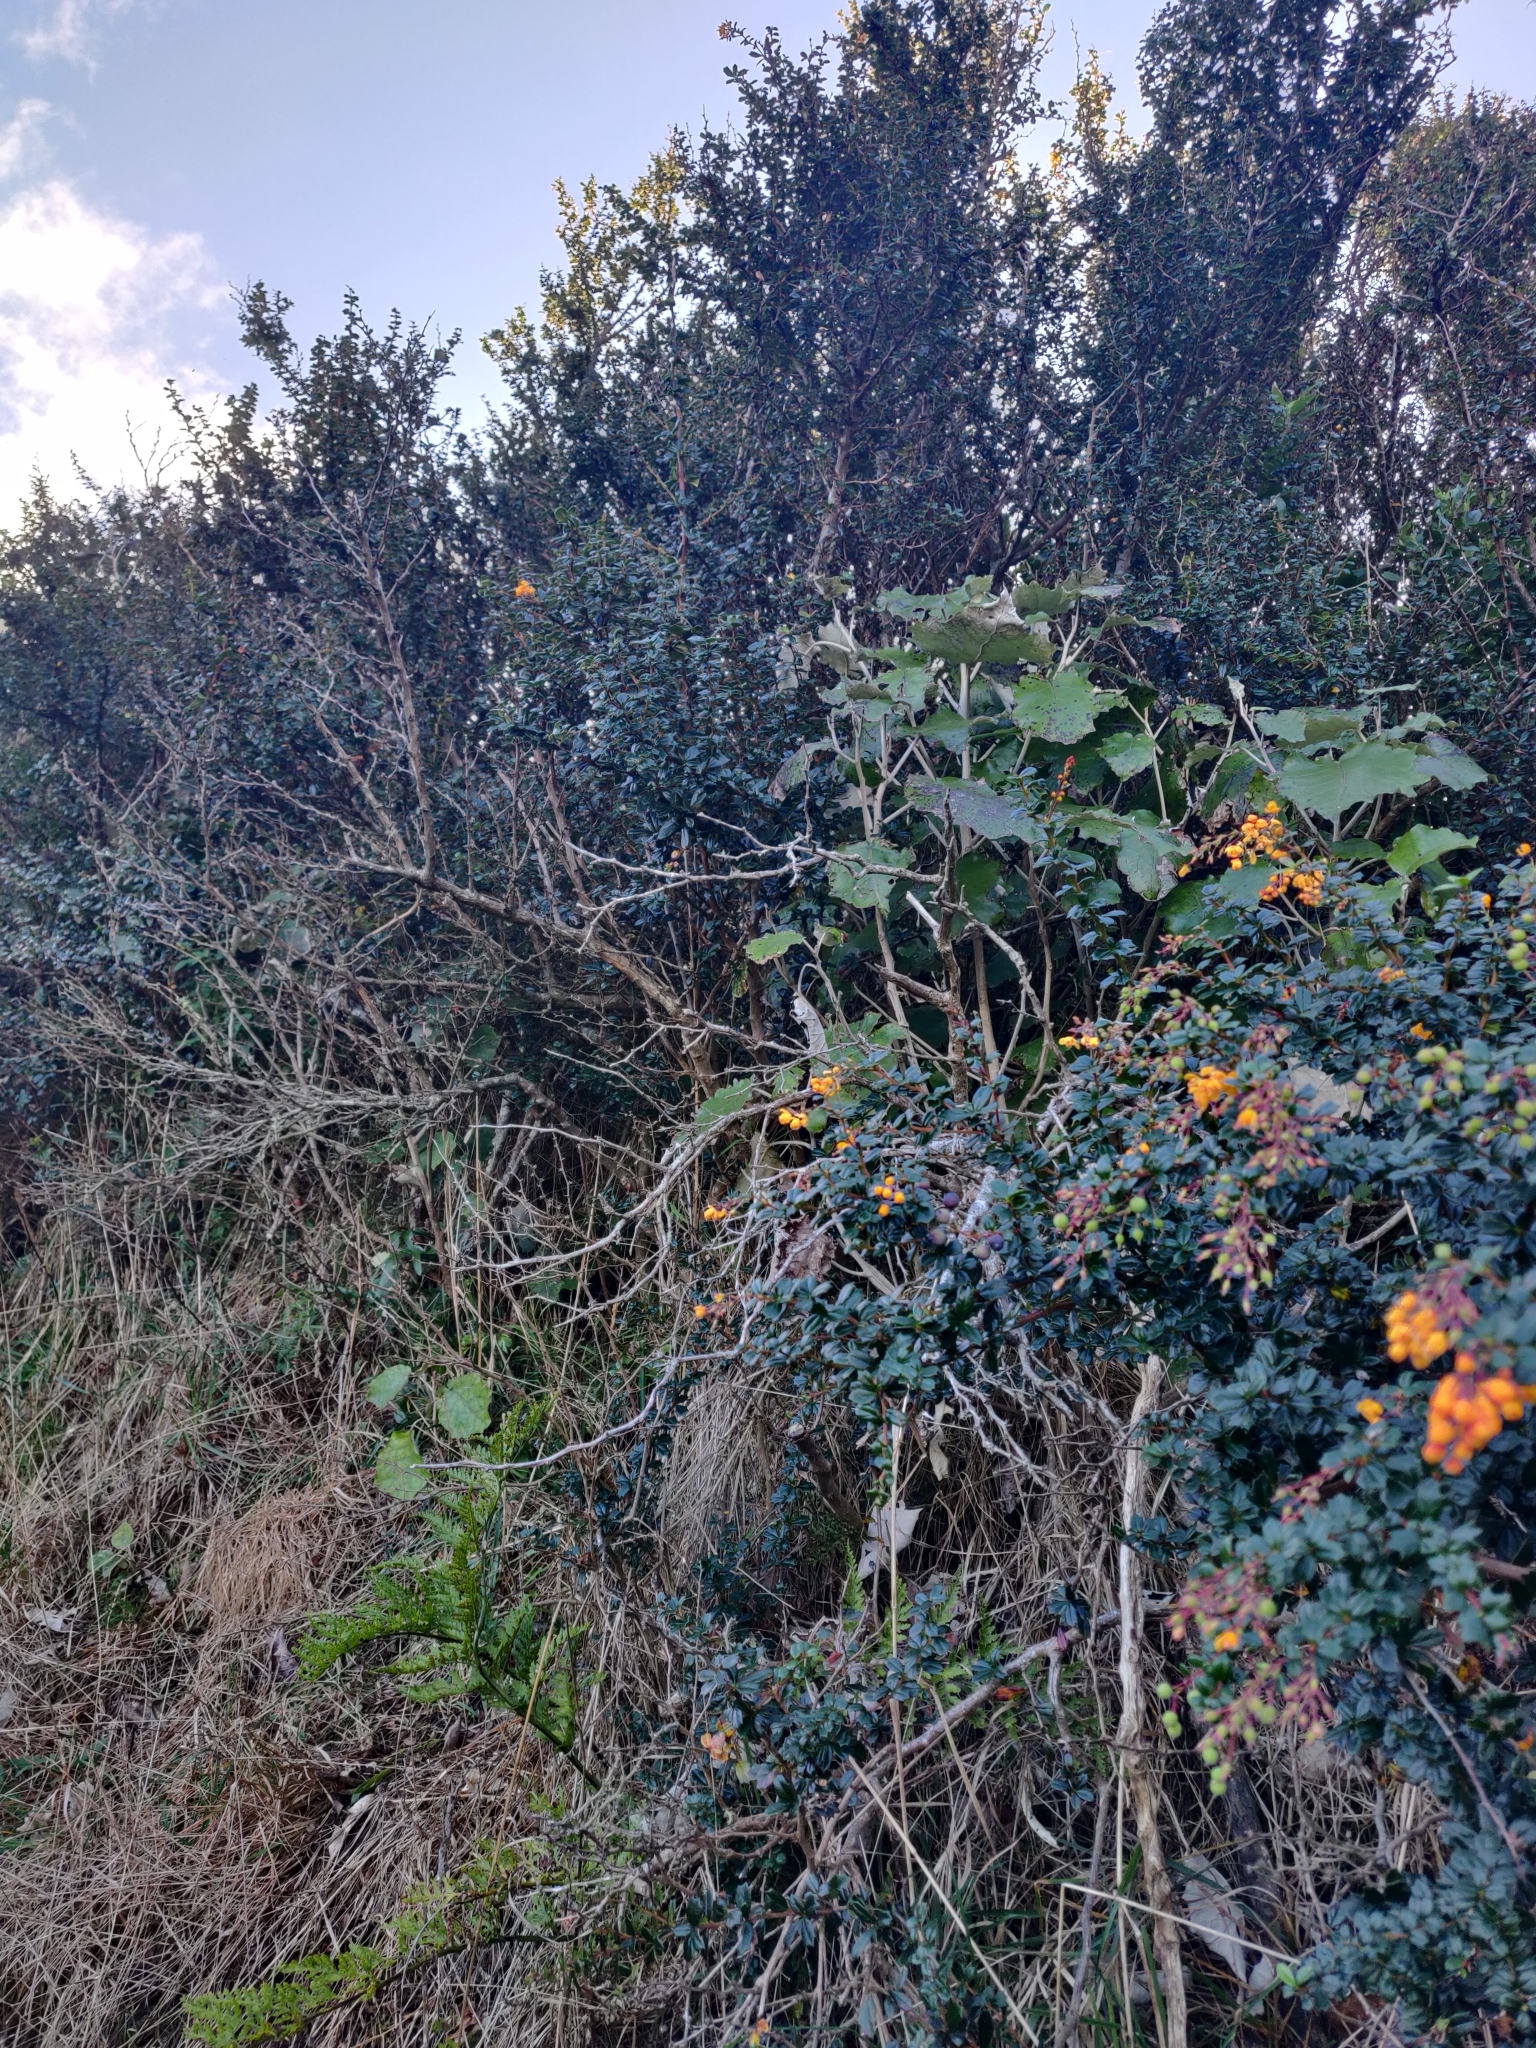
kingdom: Plantae
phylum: Tracheophyta
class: Magnoliopsida
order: Ranunculales
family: Berberidaceae
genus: Berberis
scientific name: Berberis darwinii
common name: Darwin's barberry
